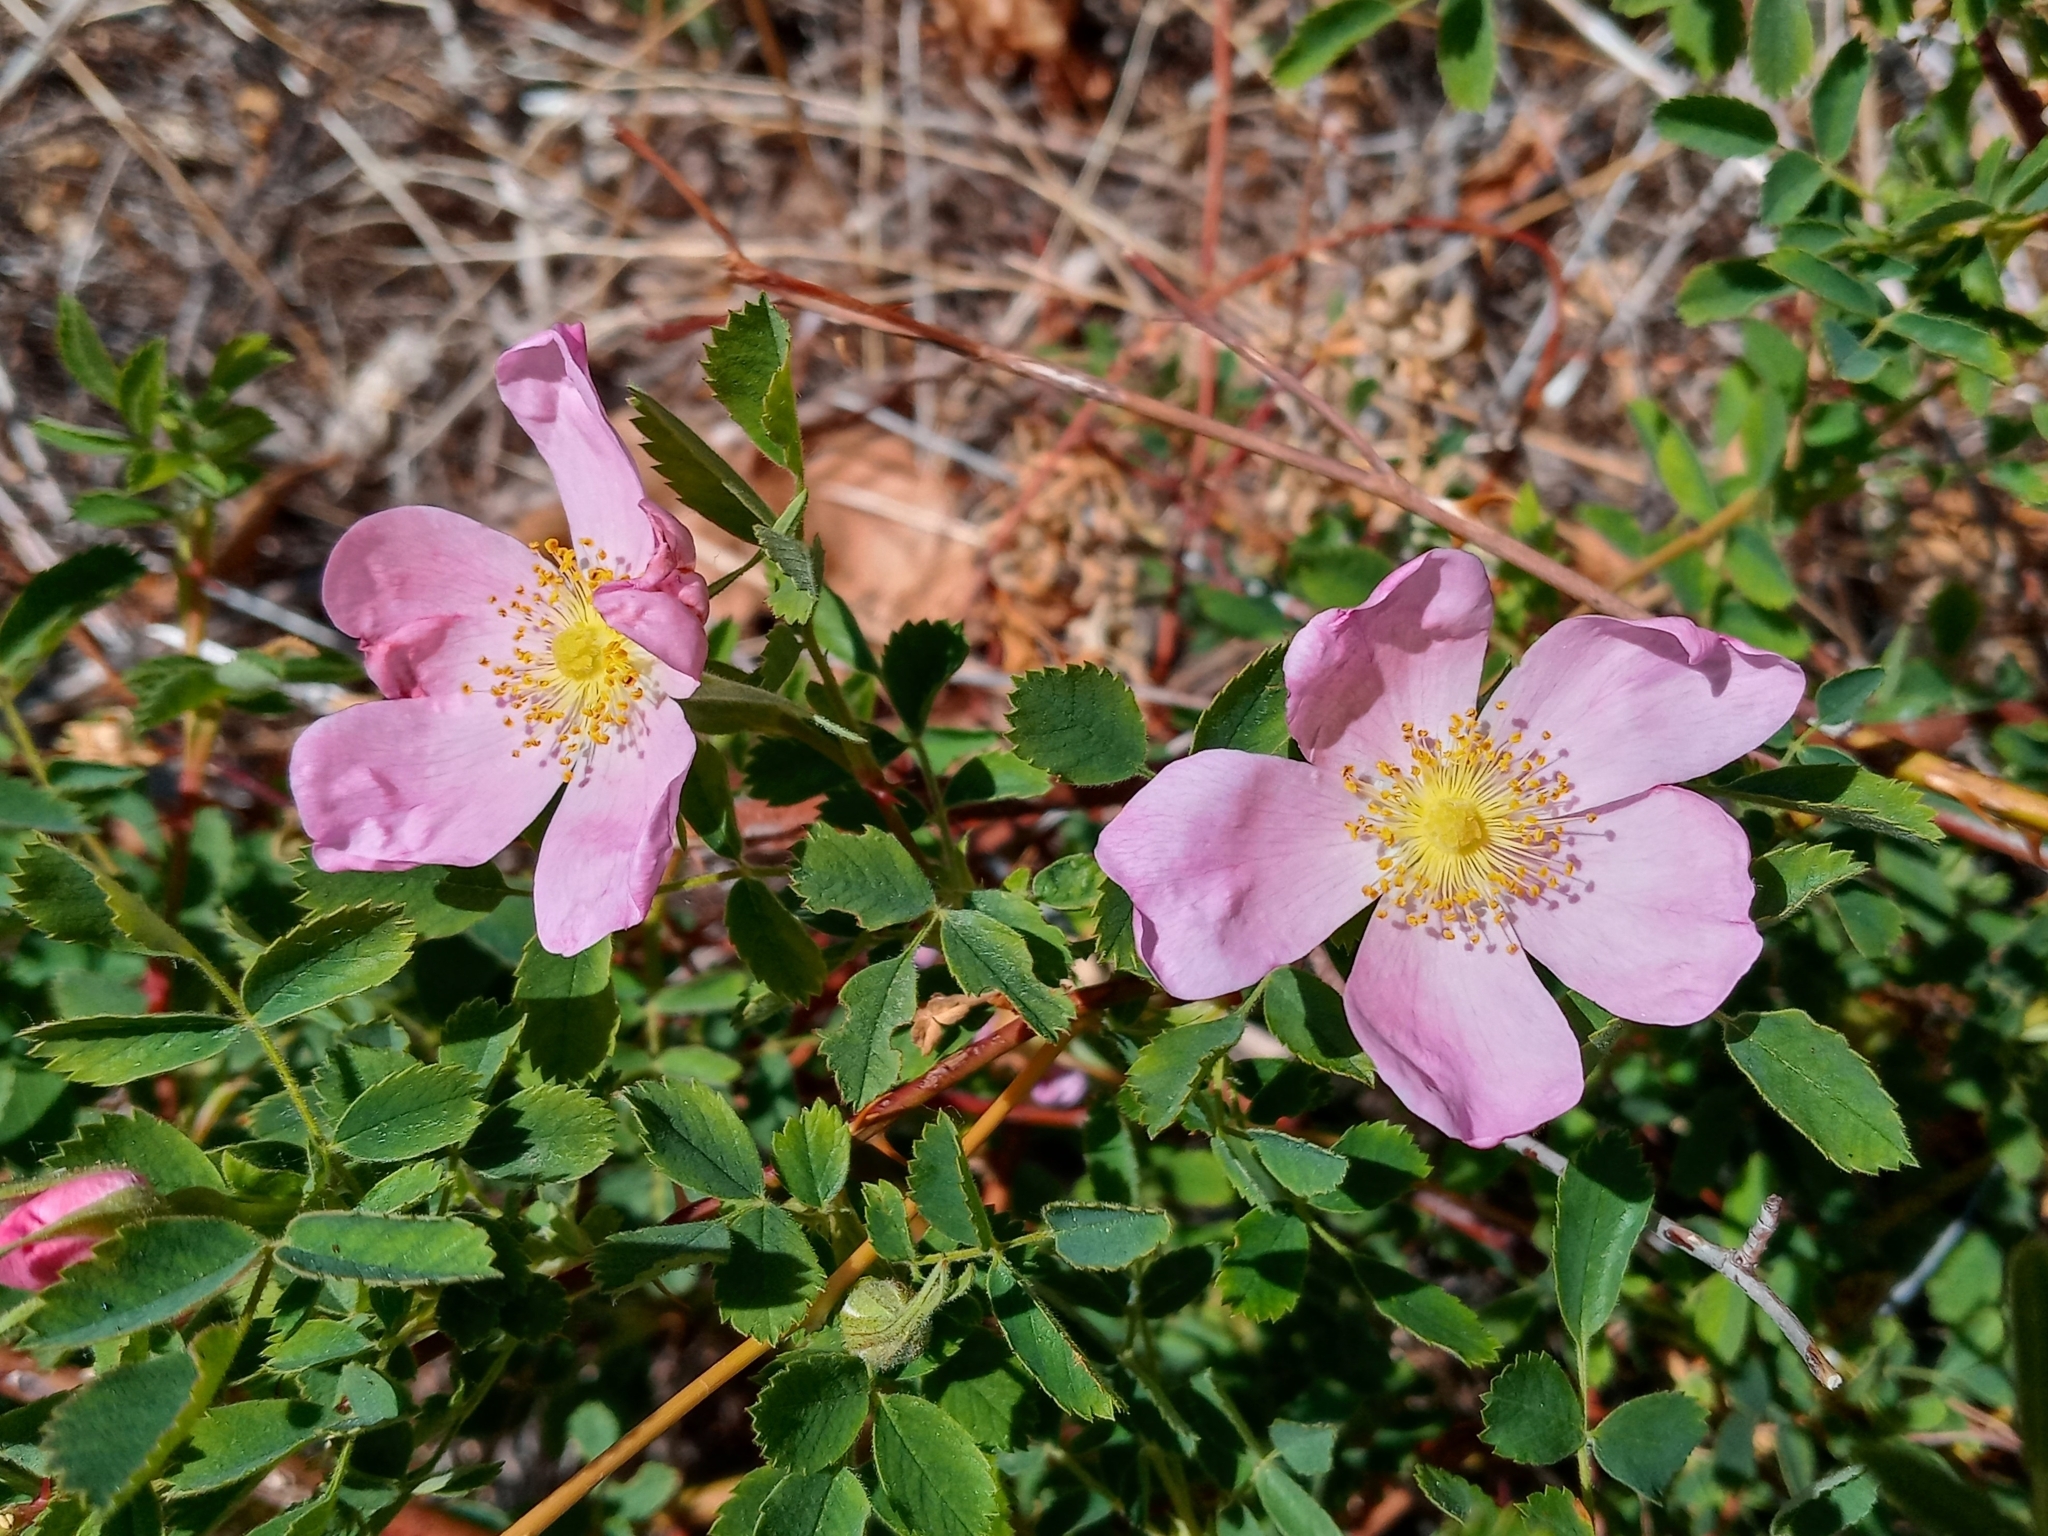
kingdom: Plantae
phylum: Tracheophyta
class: Magnoliopsida
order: Rosales
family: Rosaceae
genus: Rosa
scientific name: Rosa californica
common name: California rose
